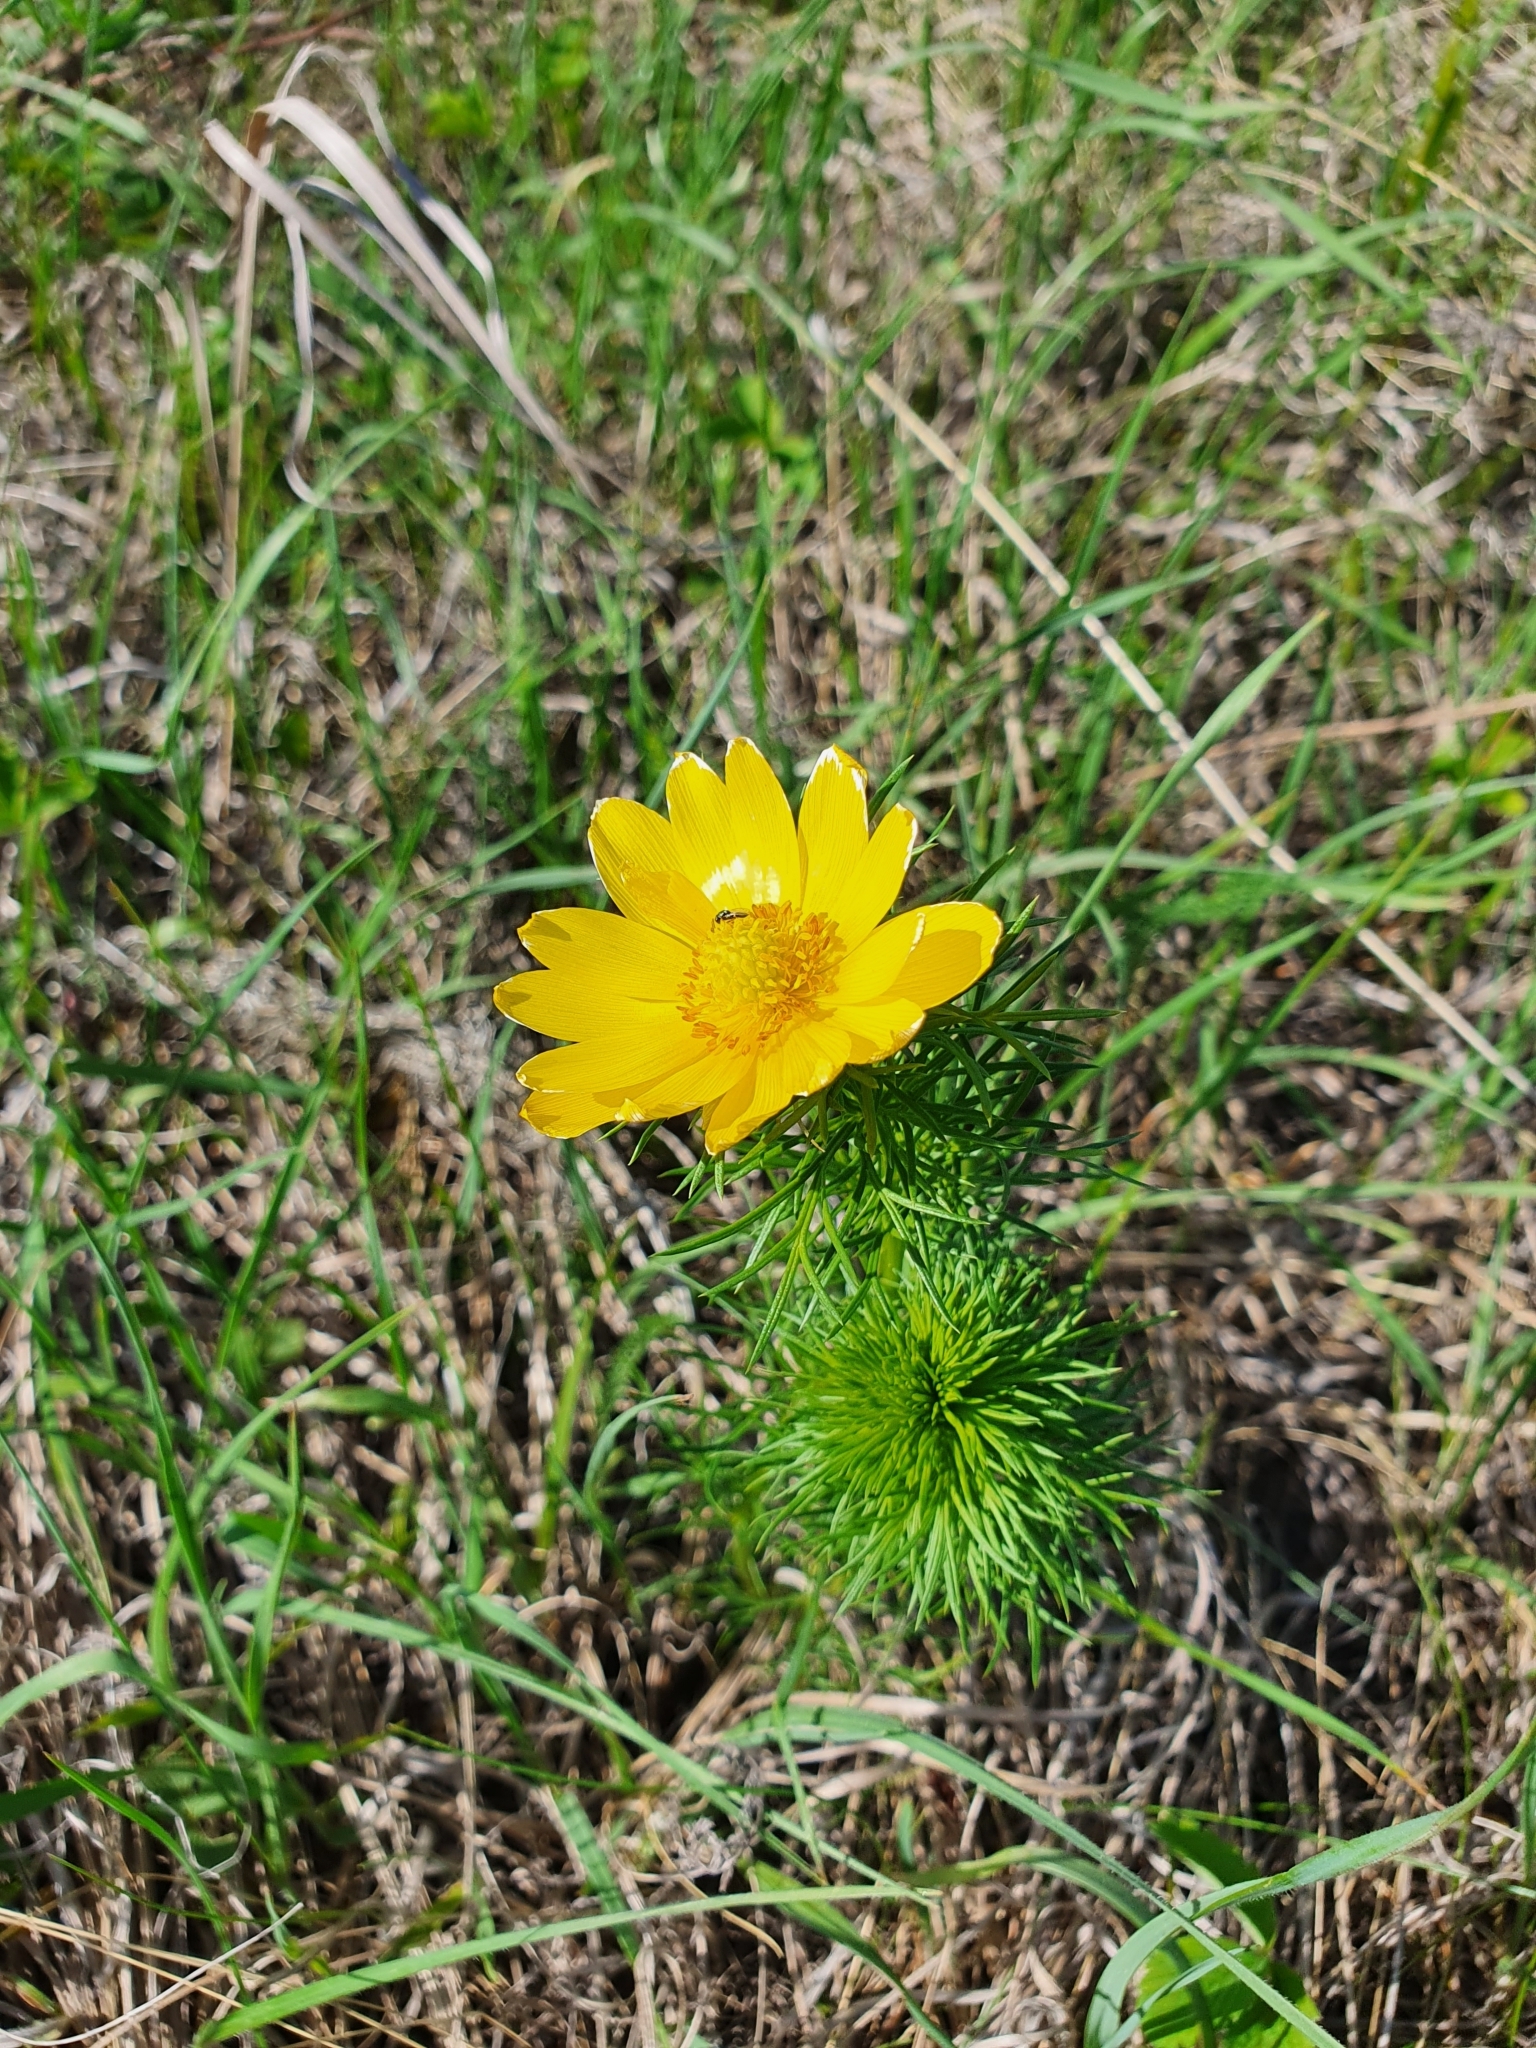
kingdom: Plantae
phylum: Tracheophyta
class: Magnoliopsida
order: Ranunculales
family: Ranunculaceae
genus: Adonis
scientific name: Adonis vernalis
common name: Yellow pheasants-eye
